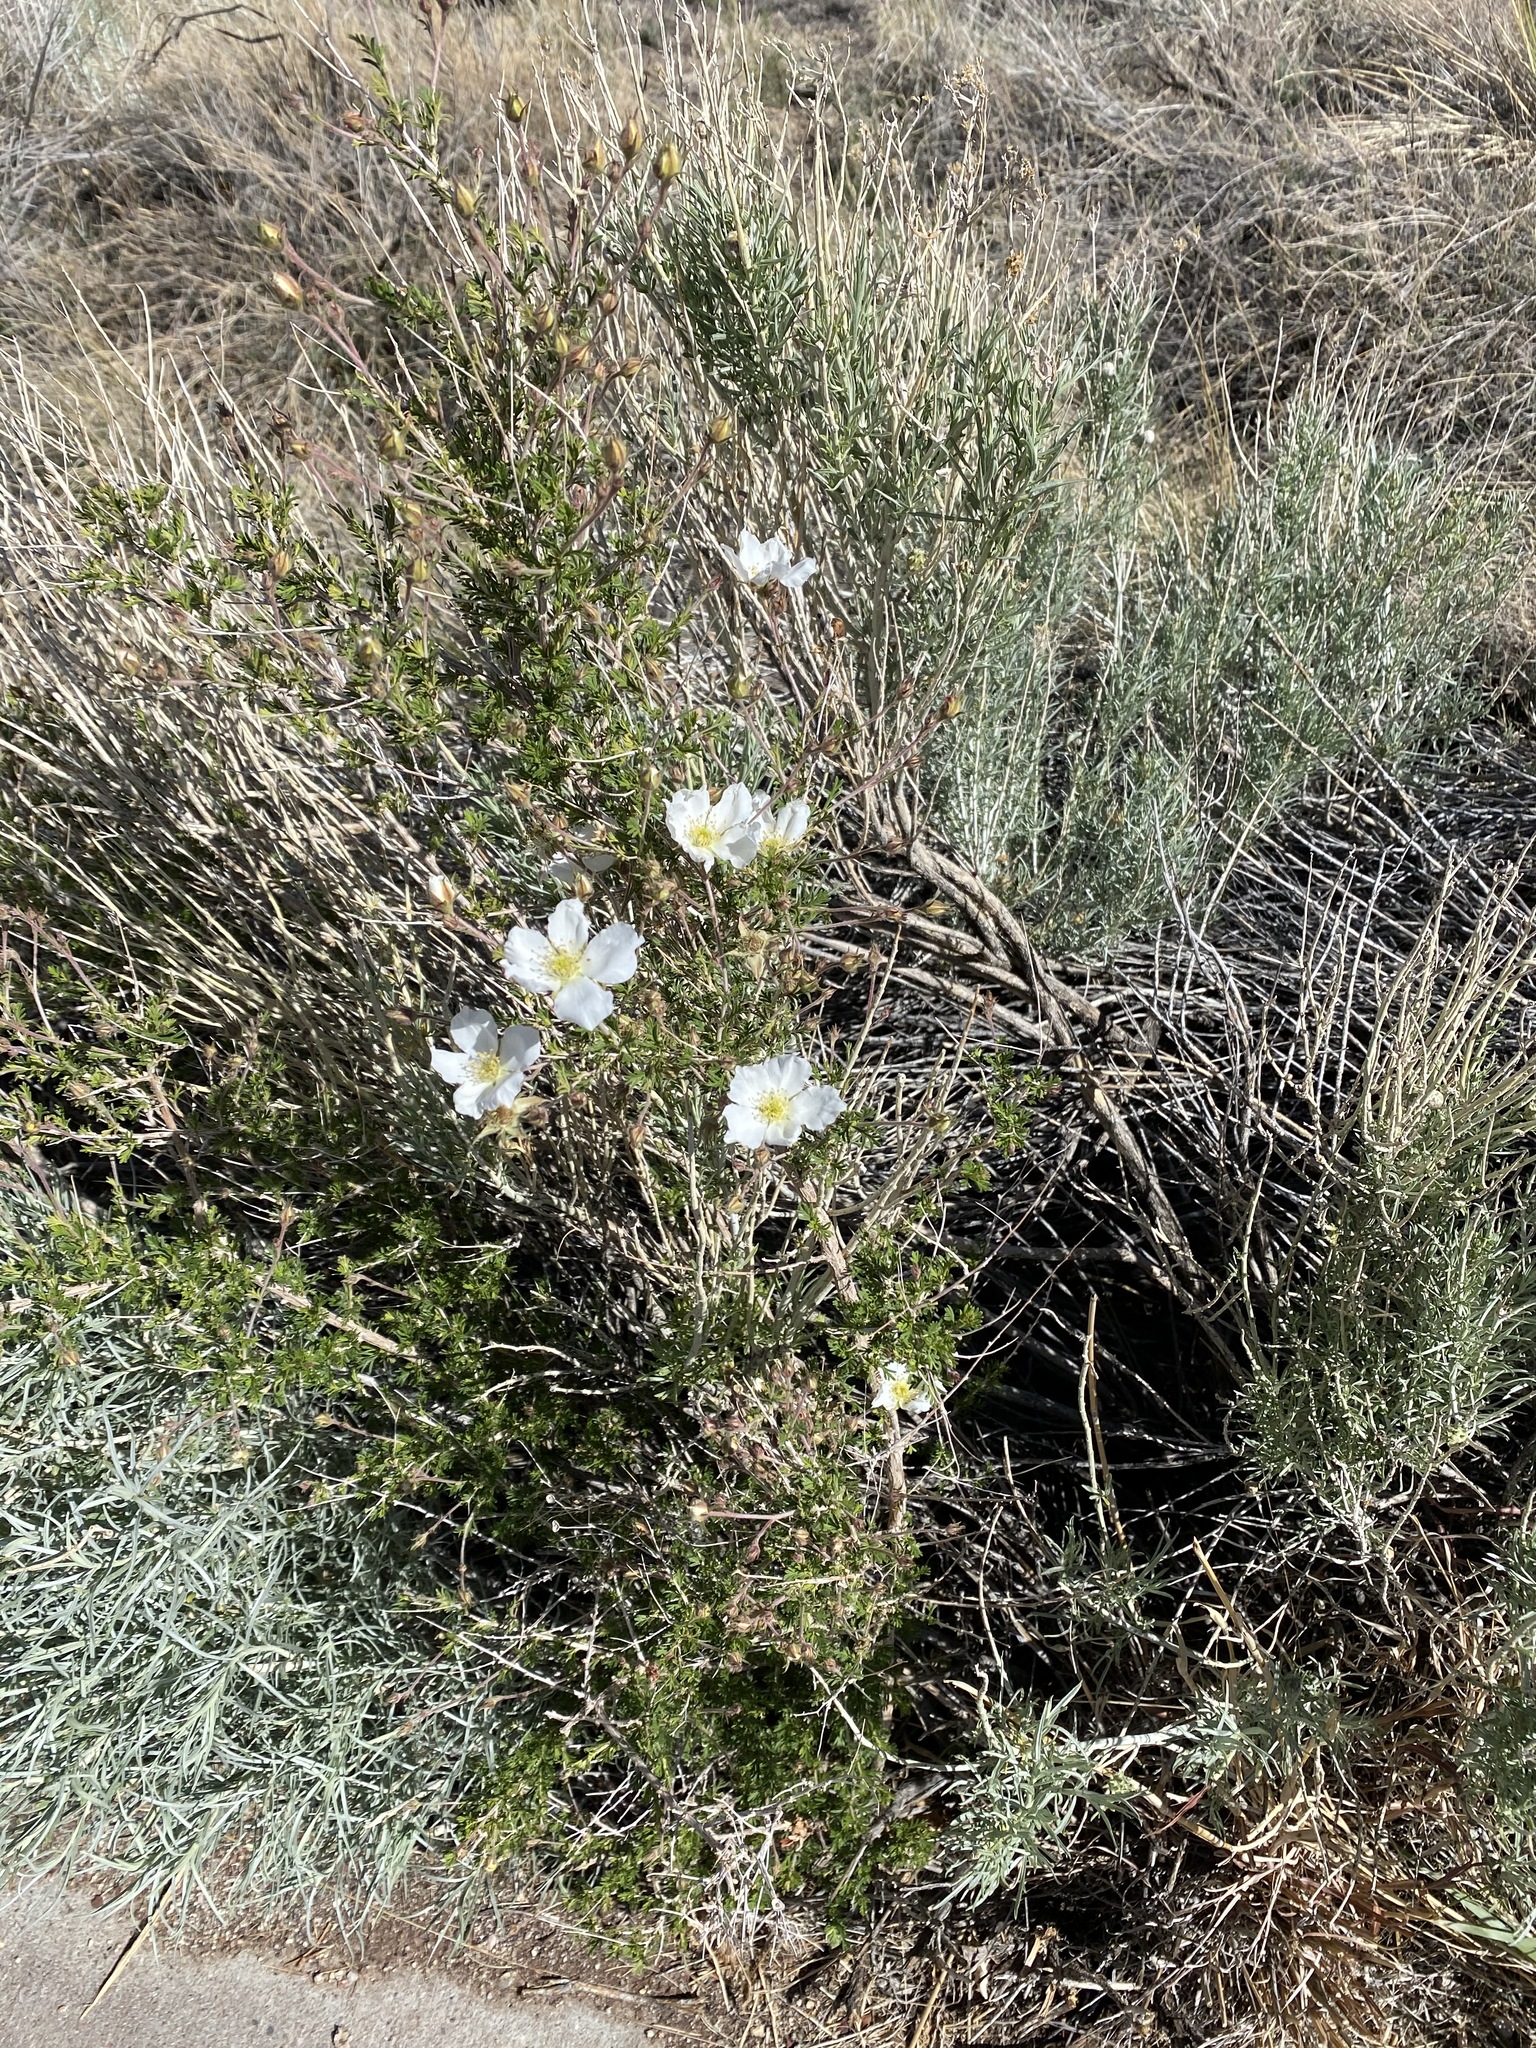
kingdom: Plantae
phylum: Tracheophyta
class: Magnoliopsida
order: Rosales
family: Rosaceae
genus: Fallugia
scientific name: Fallugia paradoxa
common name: Apache-plume
